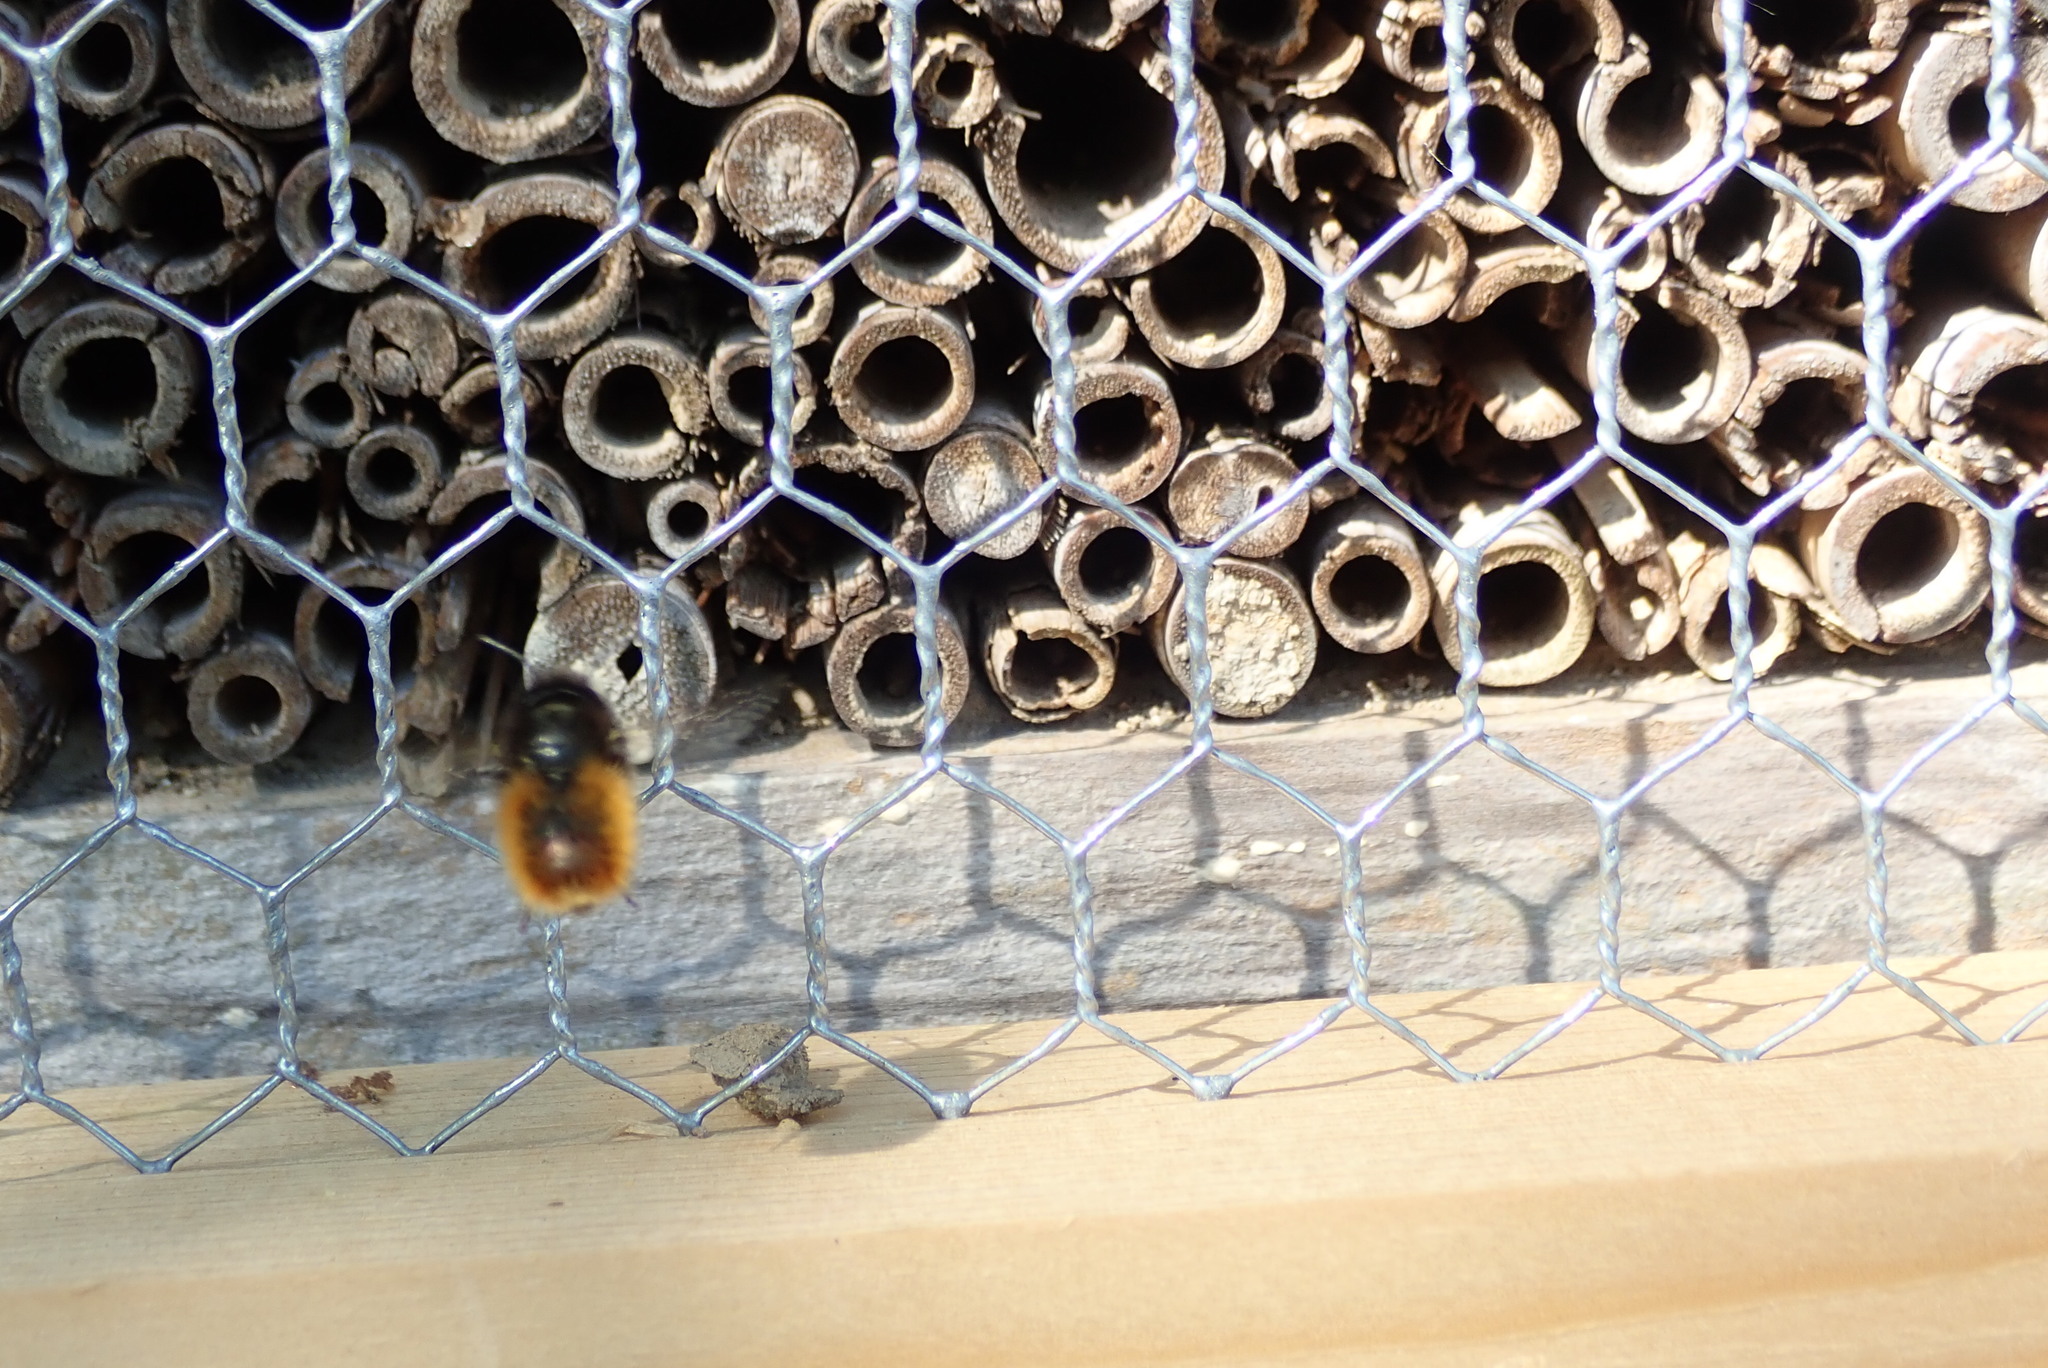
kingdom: Animalia
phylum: Arthropoda
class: Insecta
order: Hymenoptera
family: Megachilidae
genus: Osmia
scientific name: Osmia cornuta
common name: Mason bee
